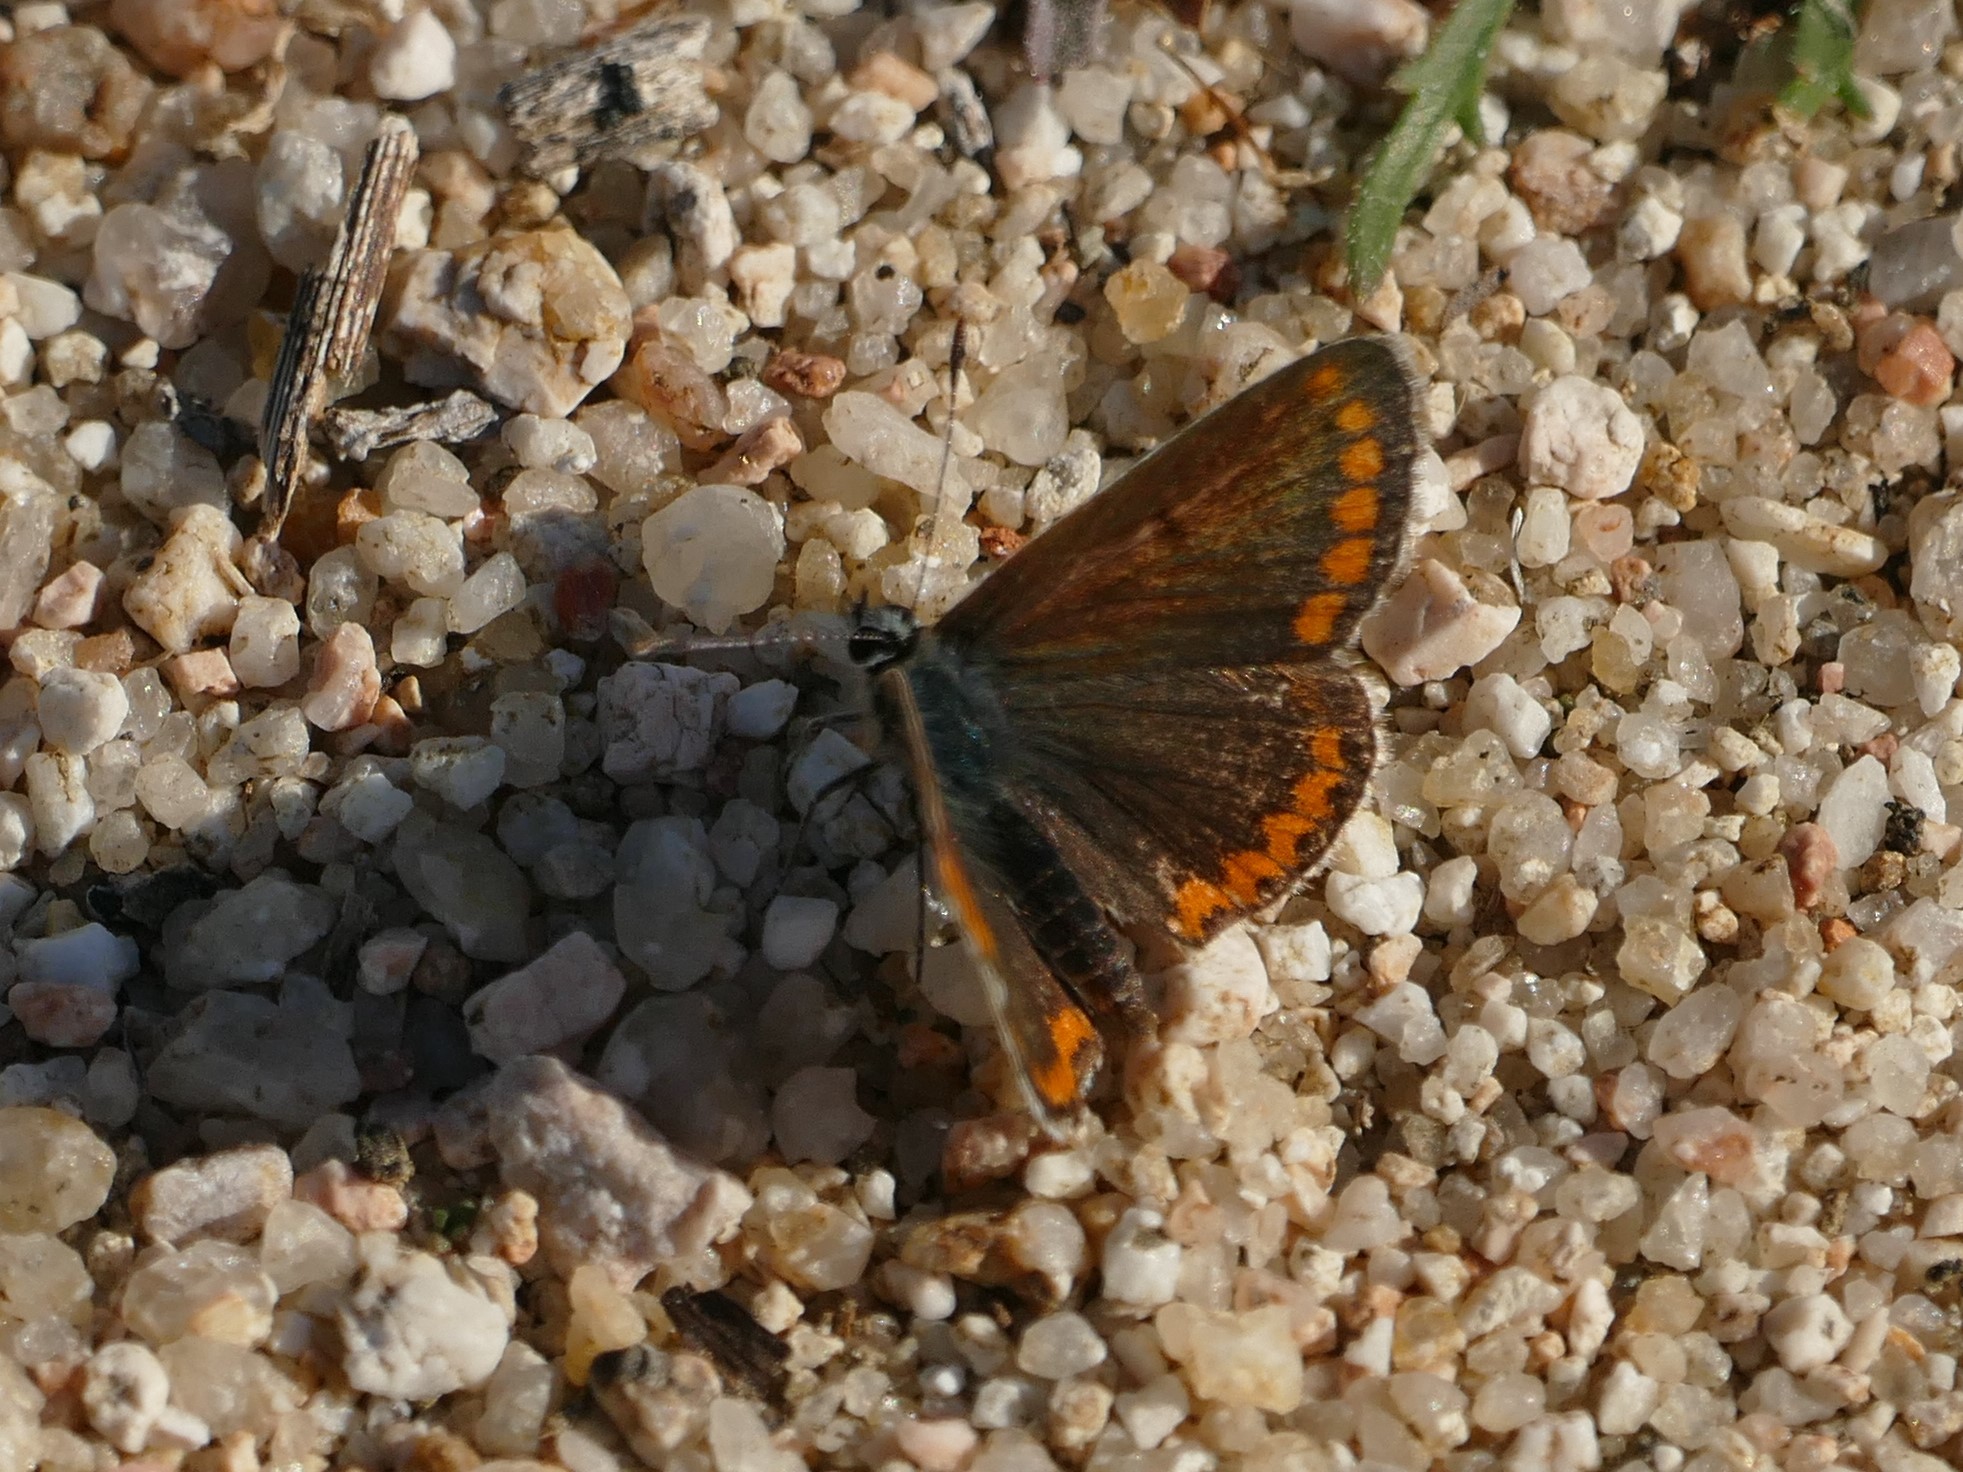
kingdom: Animalia
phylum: Arthropoda
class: Insecta
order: Lepidoptera
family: Lycaenidae
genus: Aricia
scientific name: Aricia cramera
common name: Eschscholtz´s brown  argus
